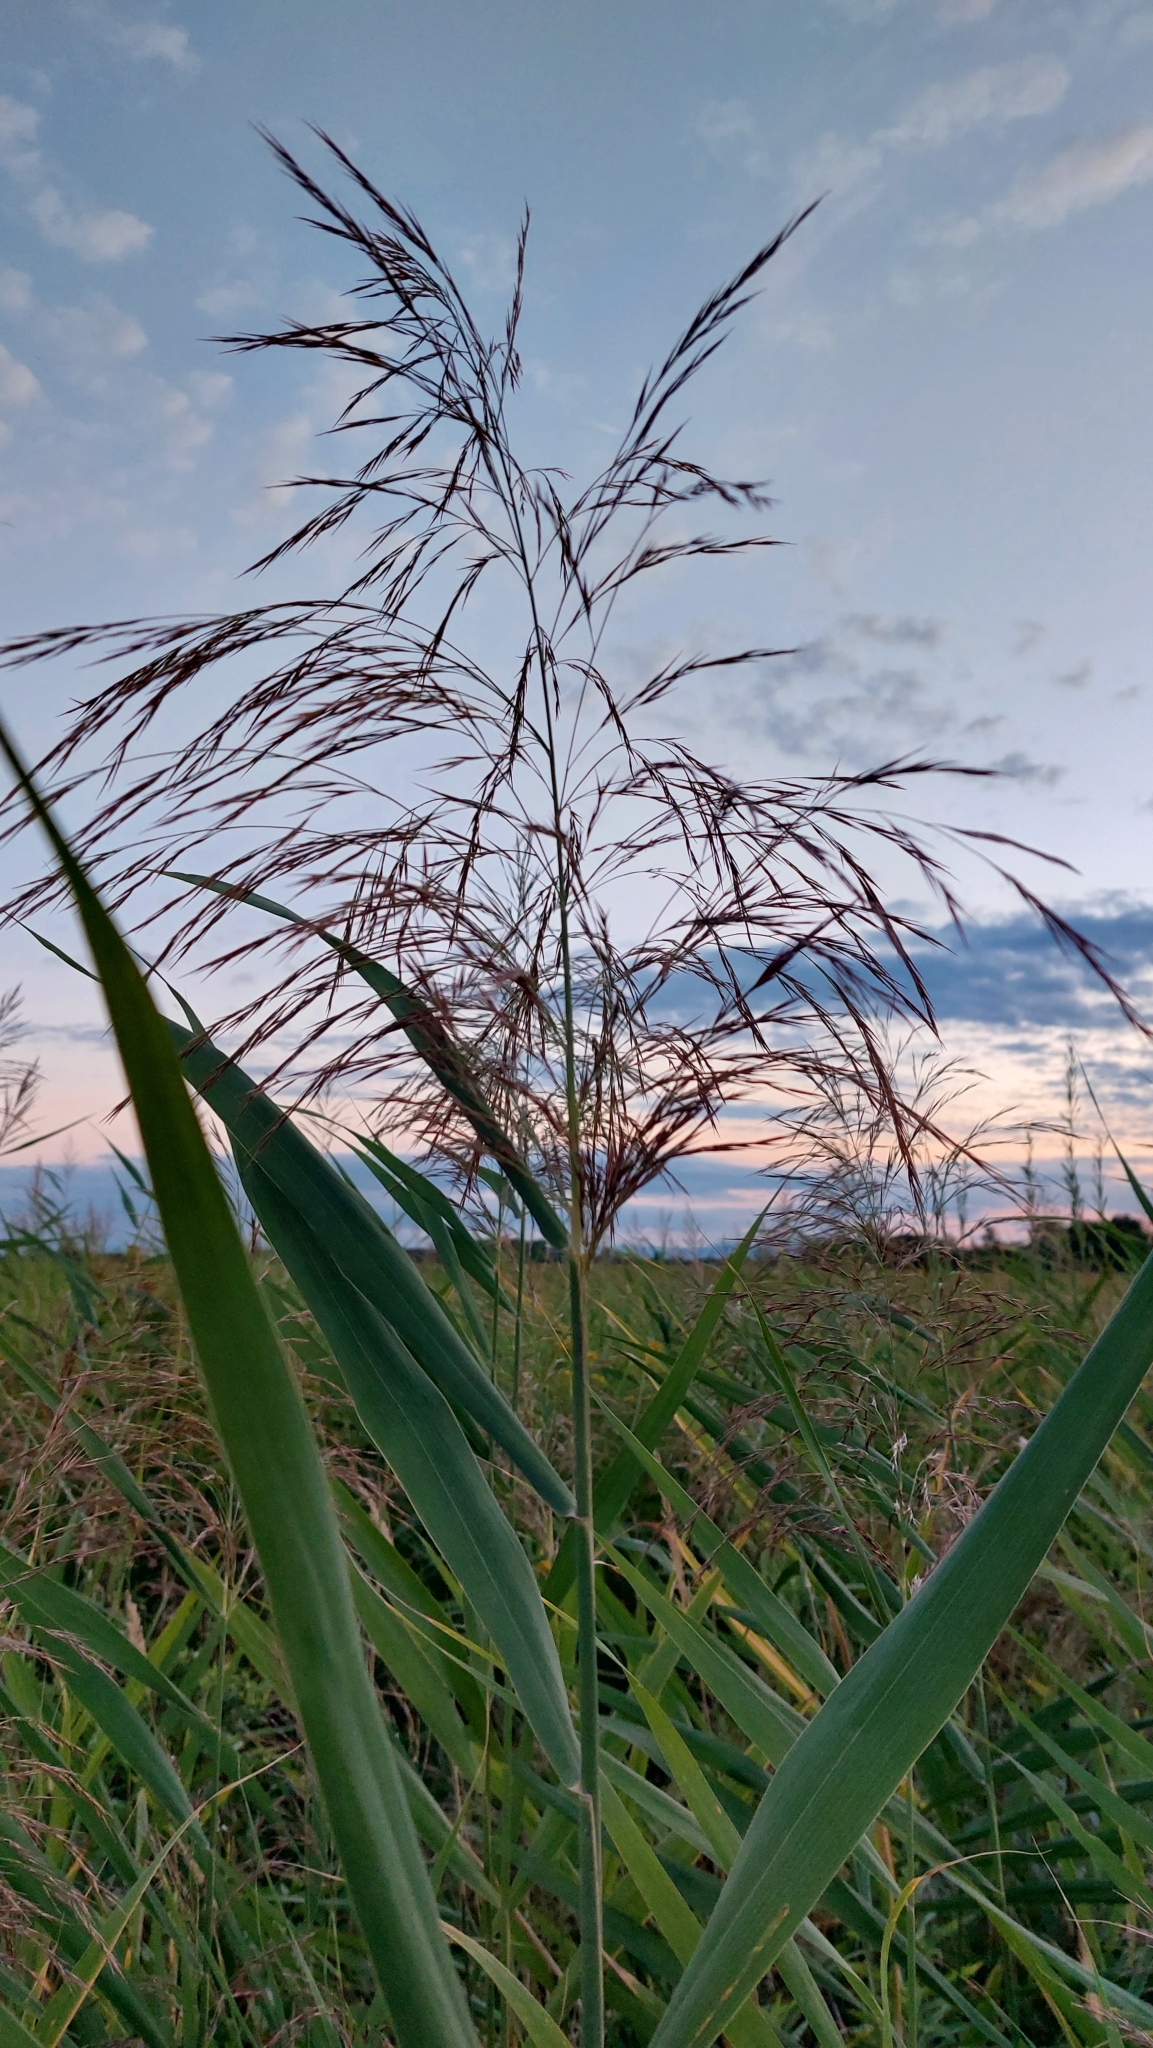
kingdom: Plantae
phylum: Tracheophyta
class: Liliopsida
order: Poales
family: Poaceae
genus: Phragmites
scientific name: Phragmites australis
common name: Common reed
